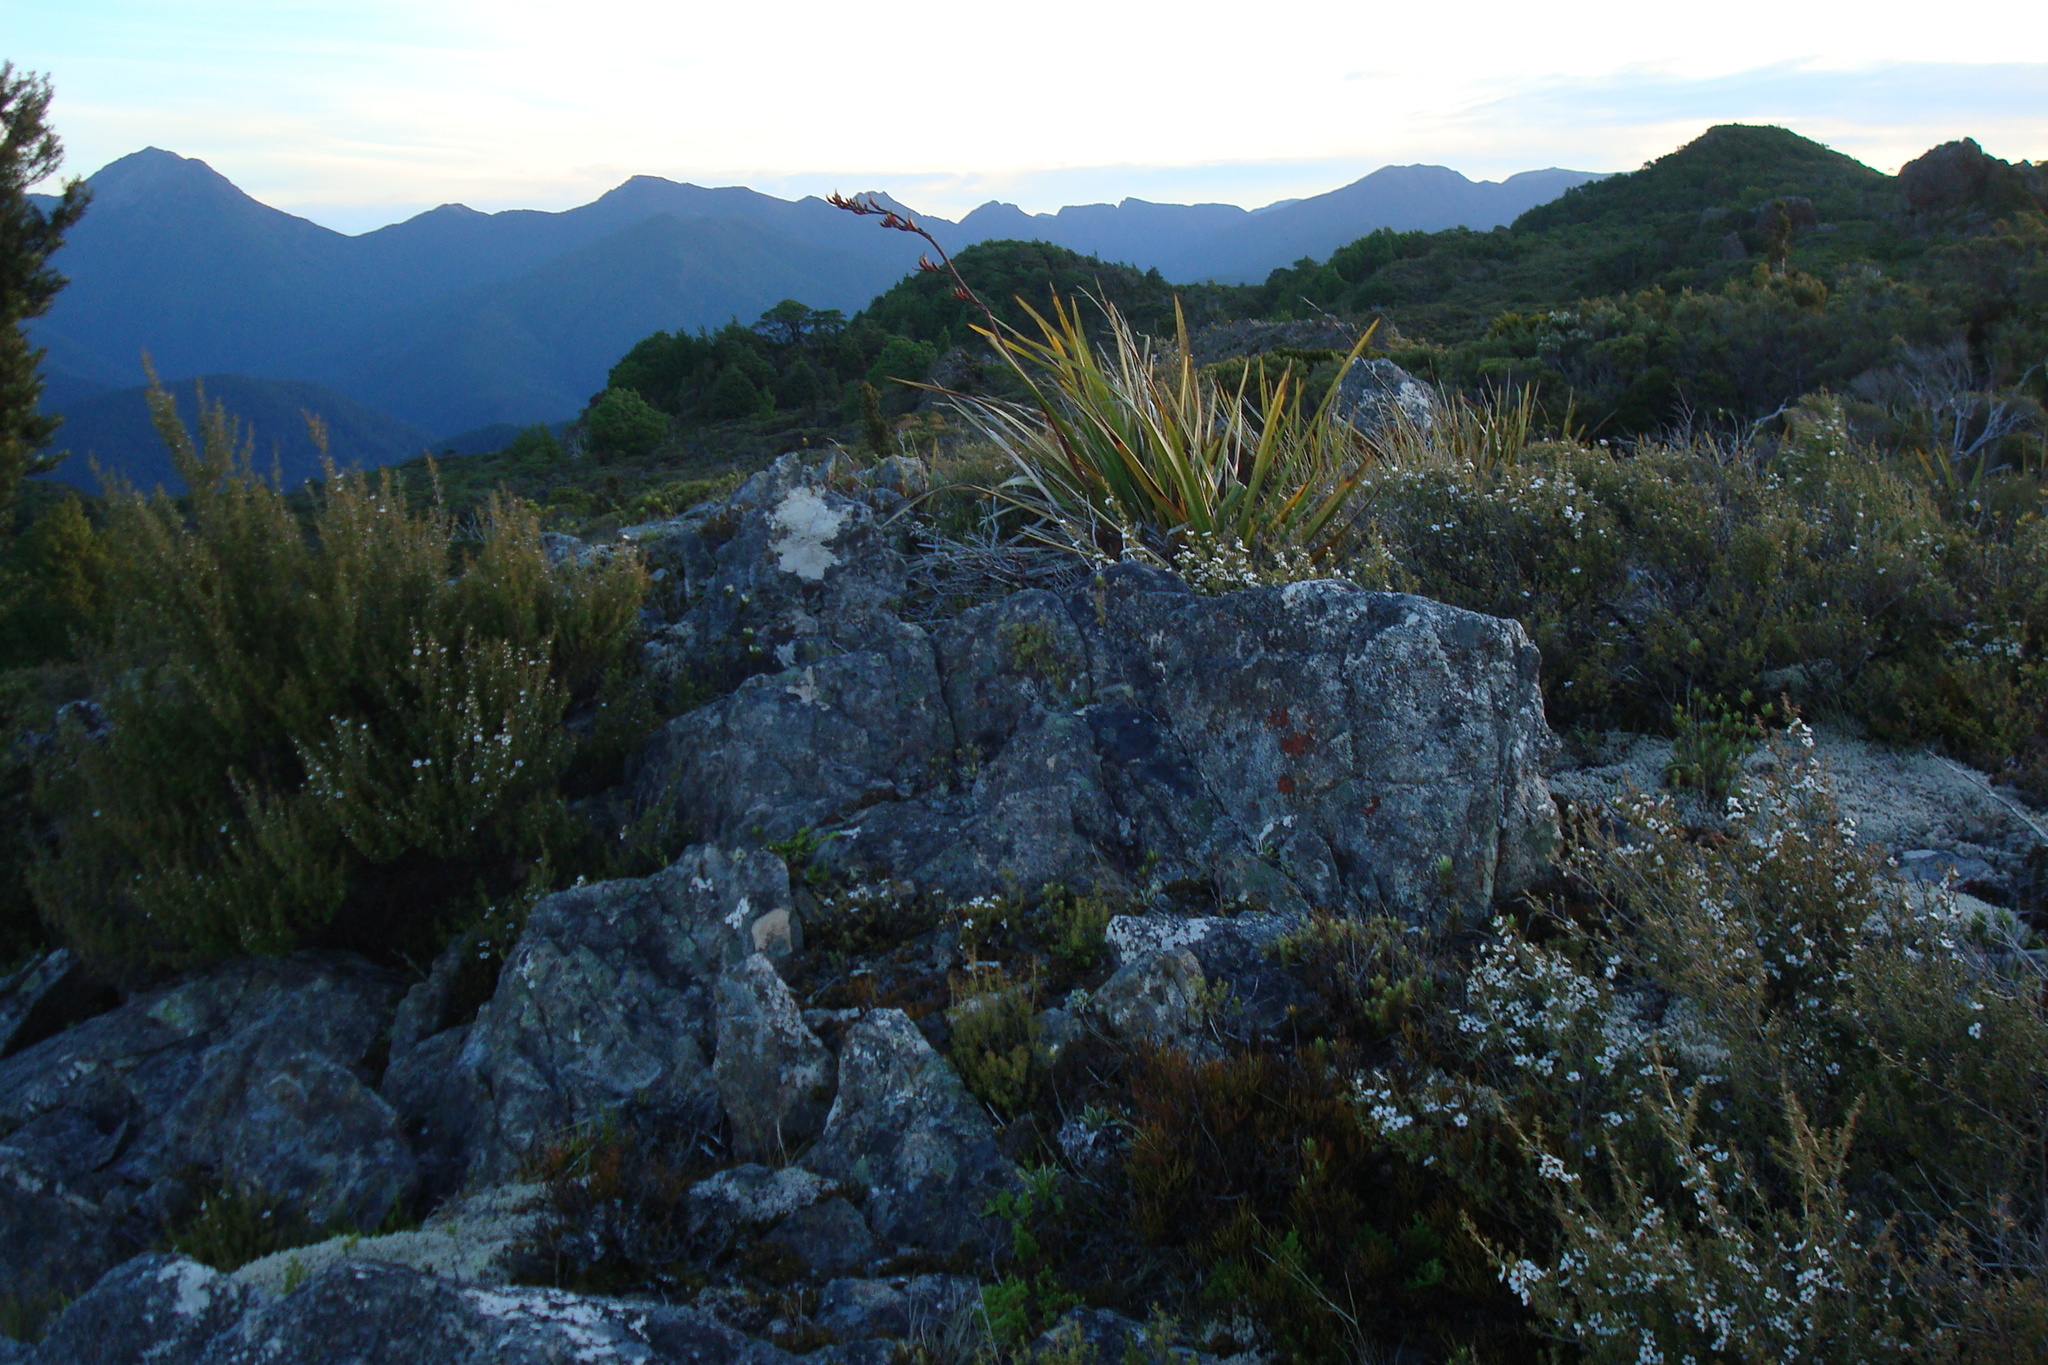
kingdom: Plantae
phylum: Tracheophyta
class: Magnoliopsida
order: Myrtales
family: Myrtaceae
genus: Leptospermum
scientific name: Leptospermum scoparium
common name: Broom tea-tree
